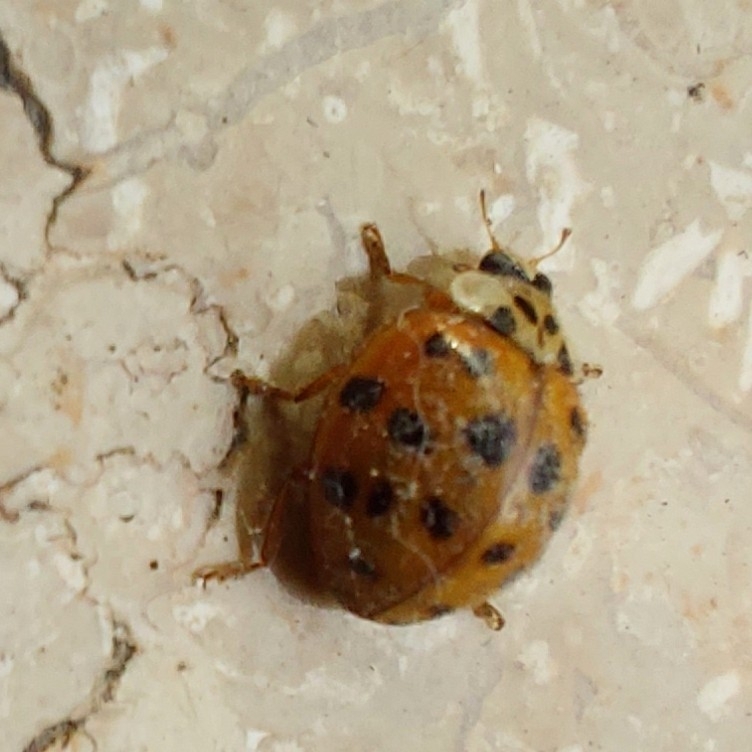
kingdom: Animalia
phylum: Arthropoda
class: Insecta
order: Coleoptera
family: Coccinellidae
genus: Harmonia
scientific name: Harmonia axyridis
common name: Harlequin ladybird
